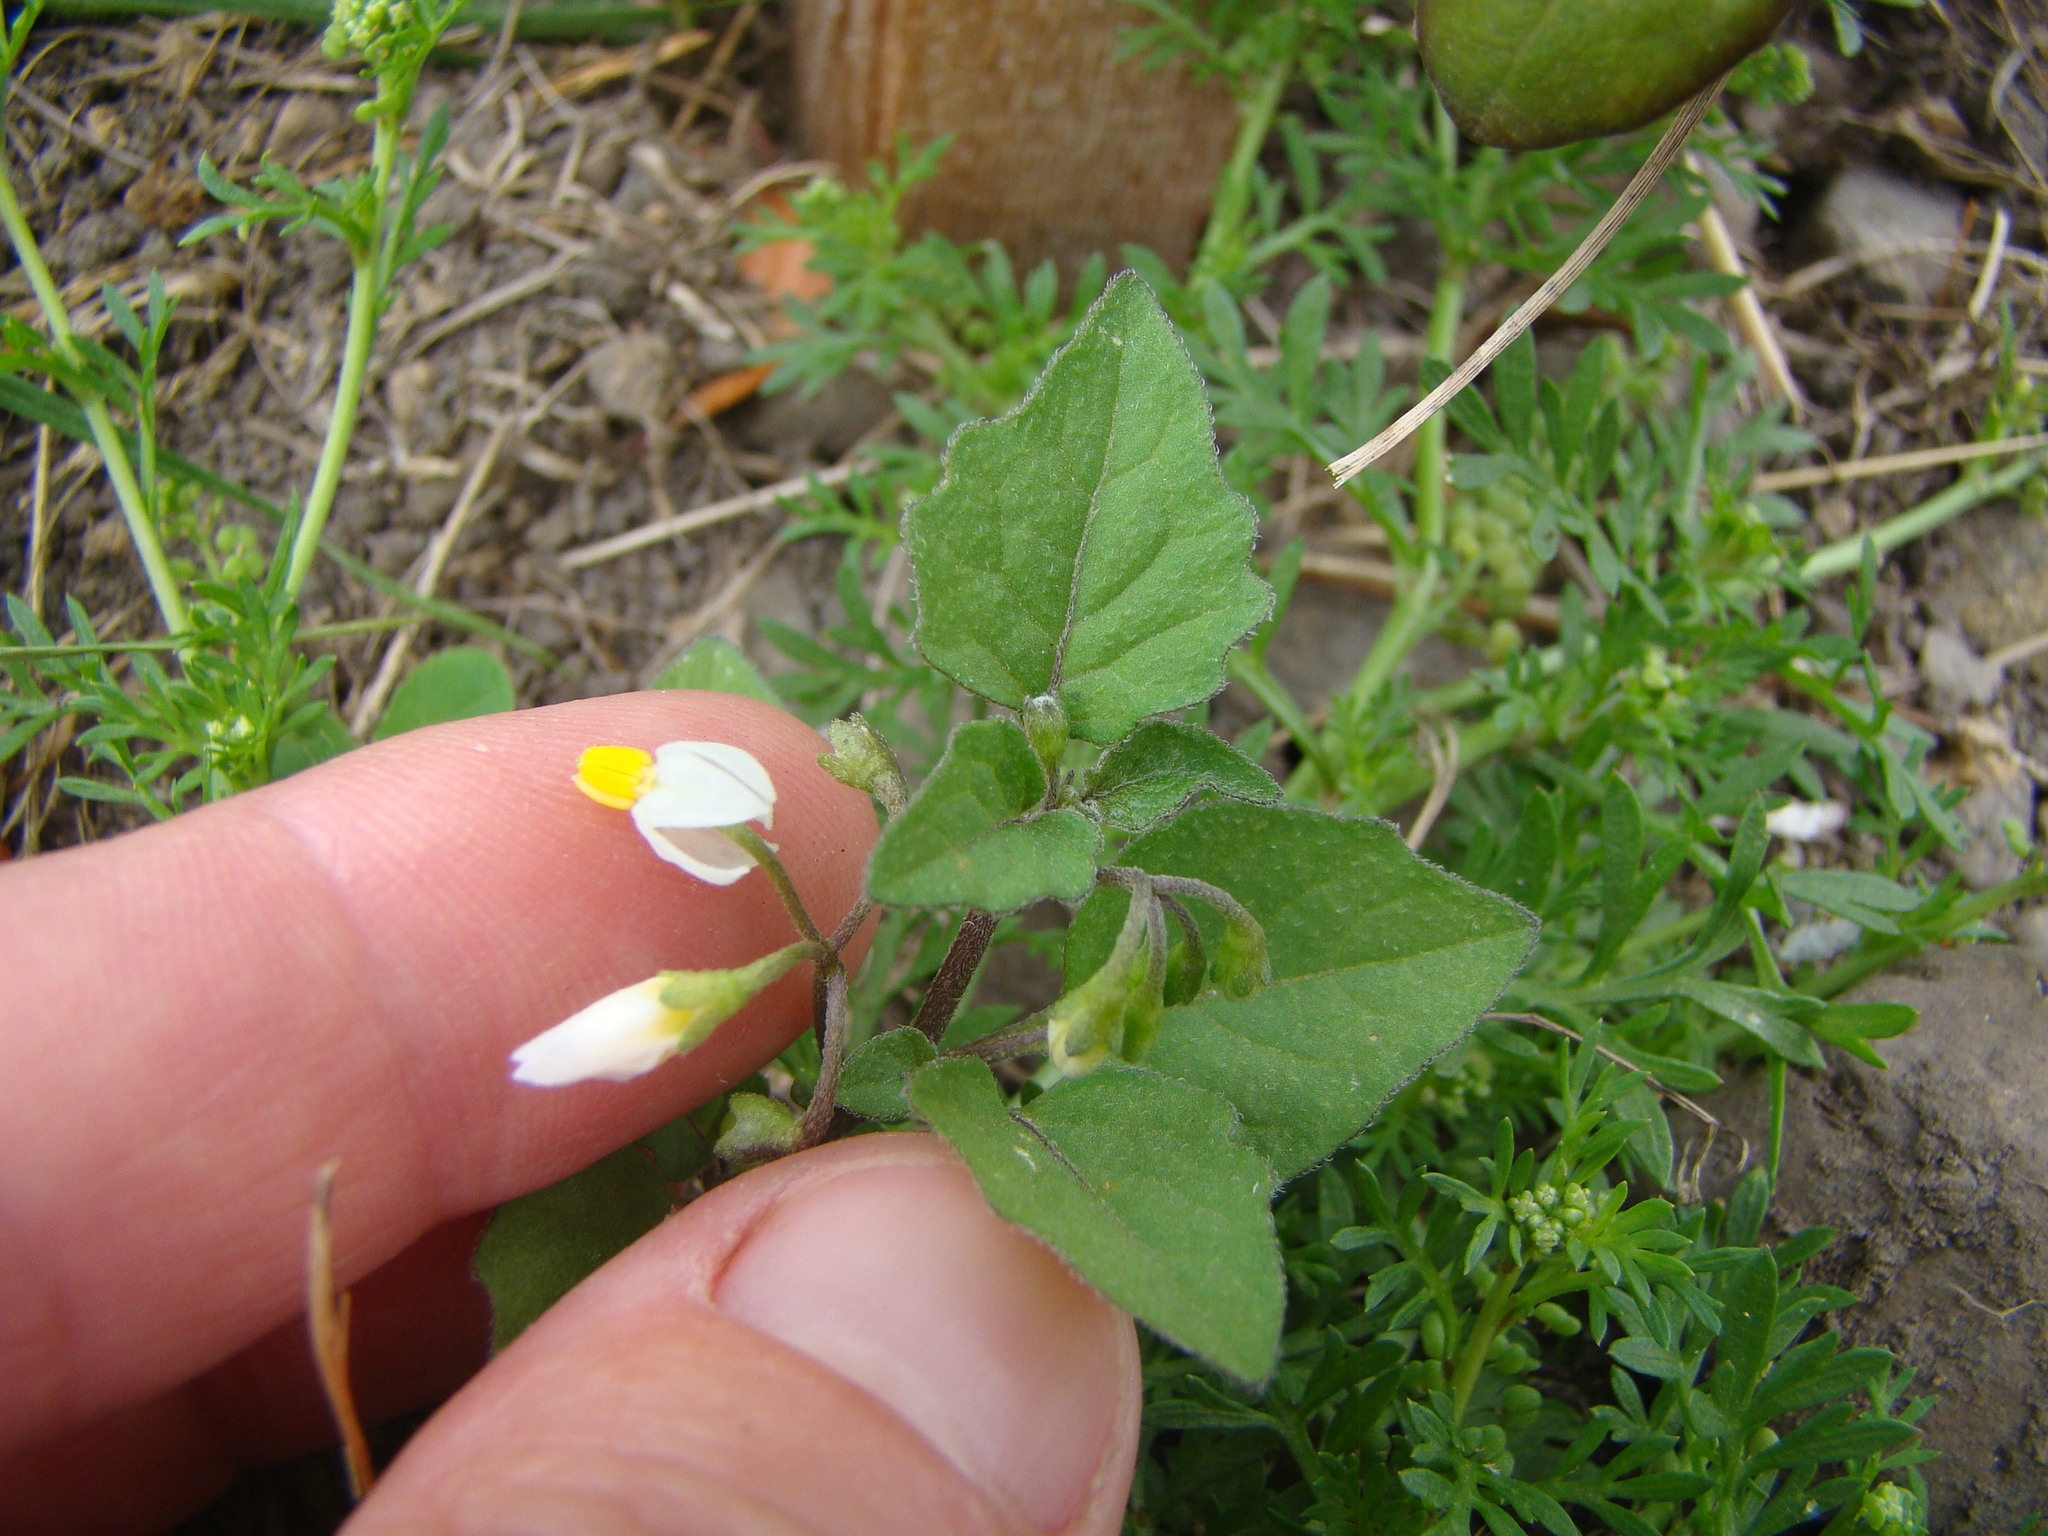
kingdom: Plantae
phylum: Tracheophyta
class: Magnoliopsida
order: Solanales
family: Solanaceae
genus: Solanum
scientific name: Solanum nigrum
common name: Black nightshade
